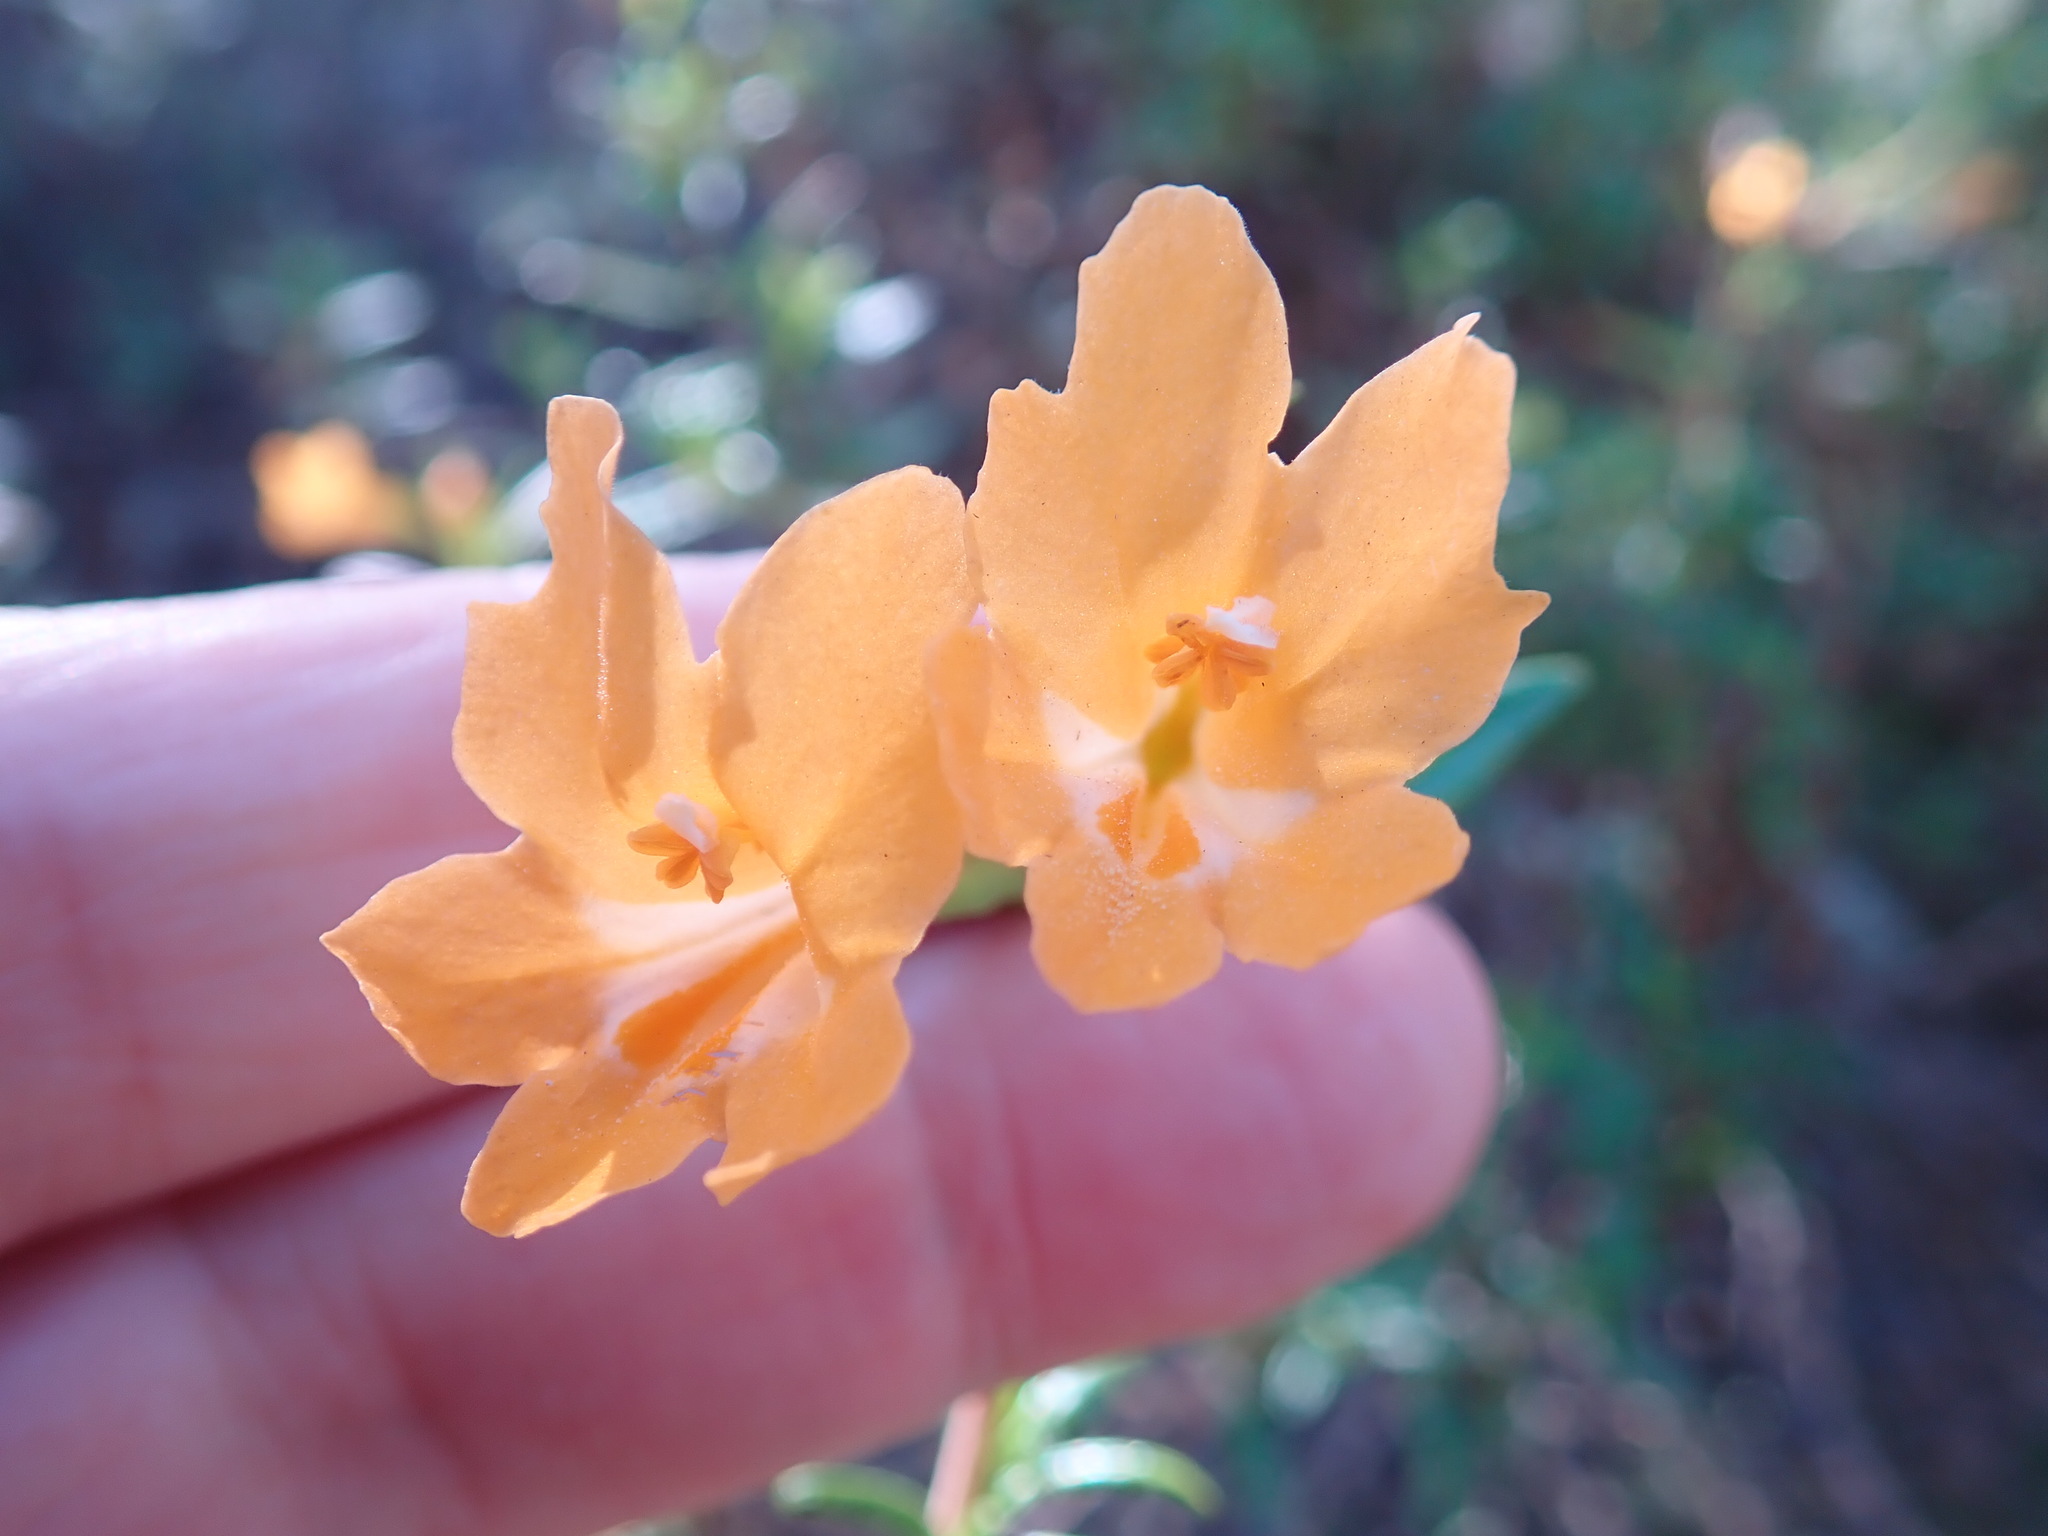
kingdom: Plantae
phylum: Tracheophyta
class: Magnoliopsida
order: Lamiales
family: Phrymaceae
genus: Diplacus
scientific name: Diplacus aurantiacus
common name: Bush monkey-flower
